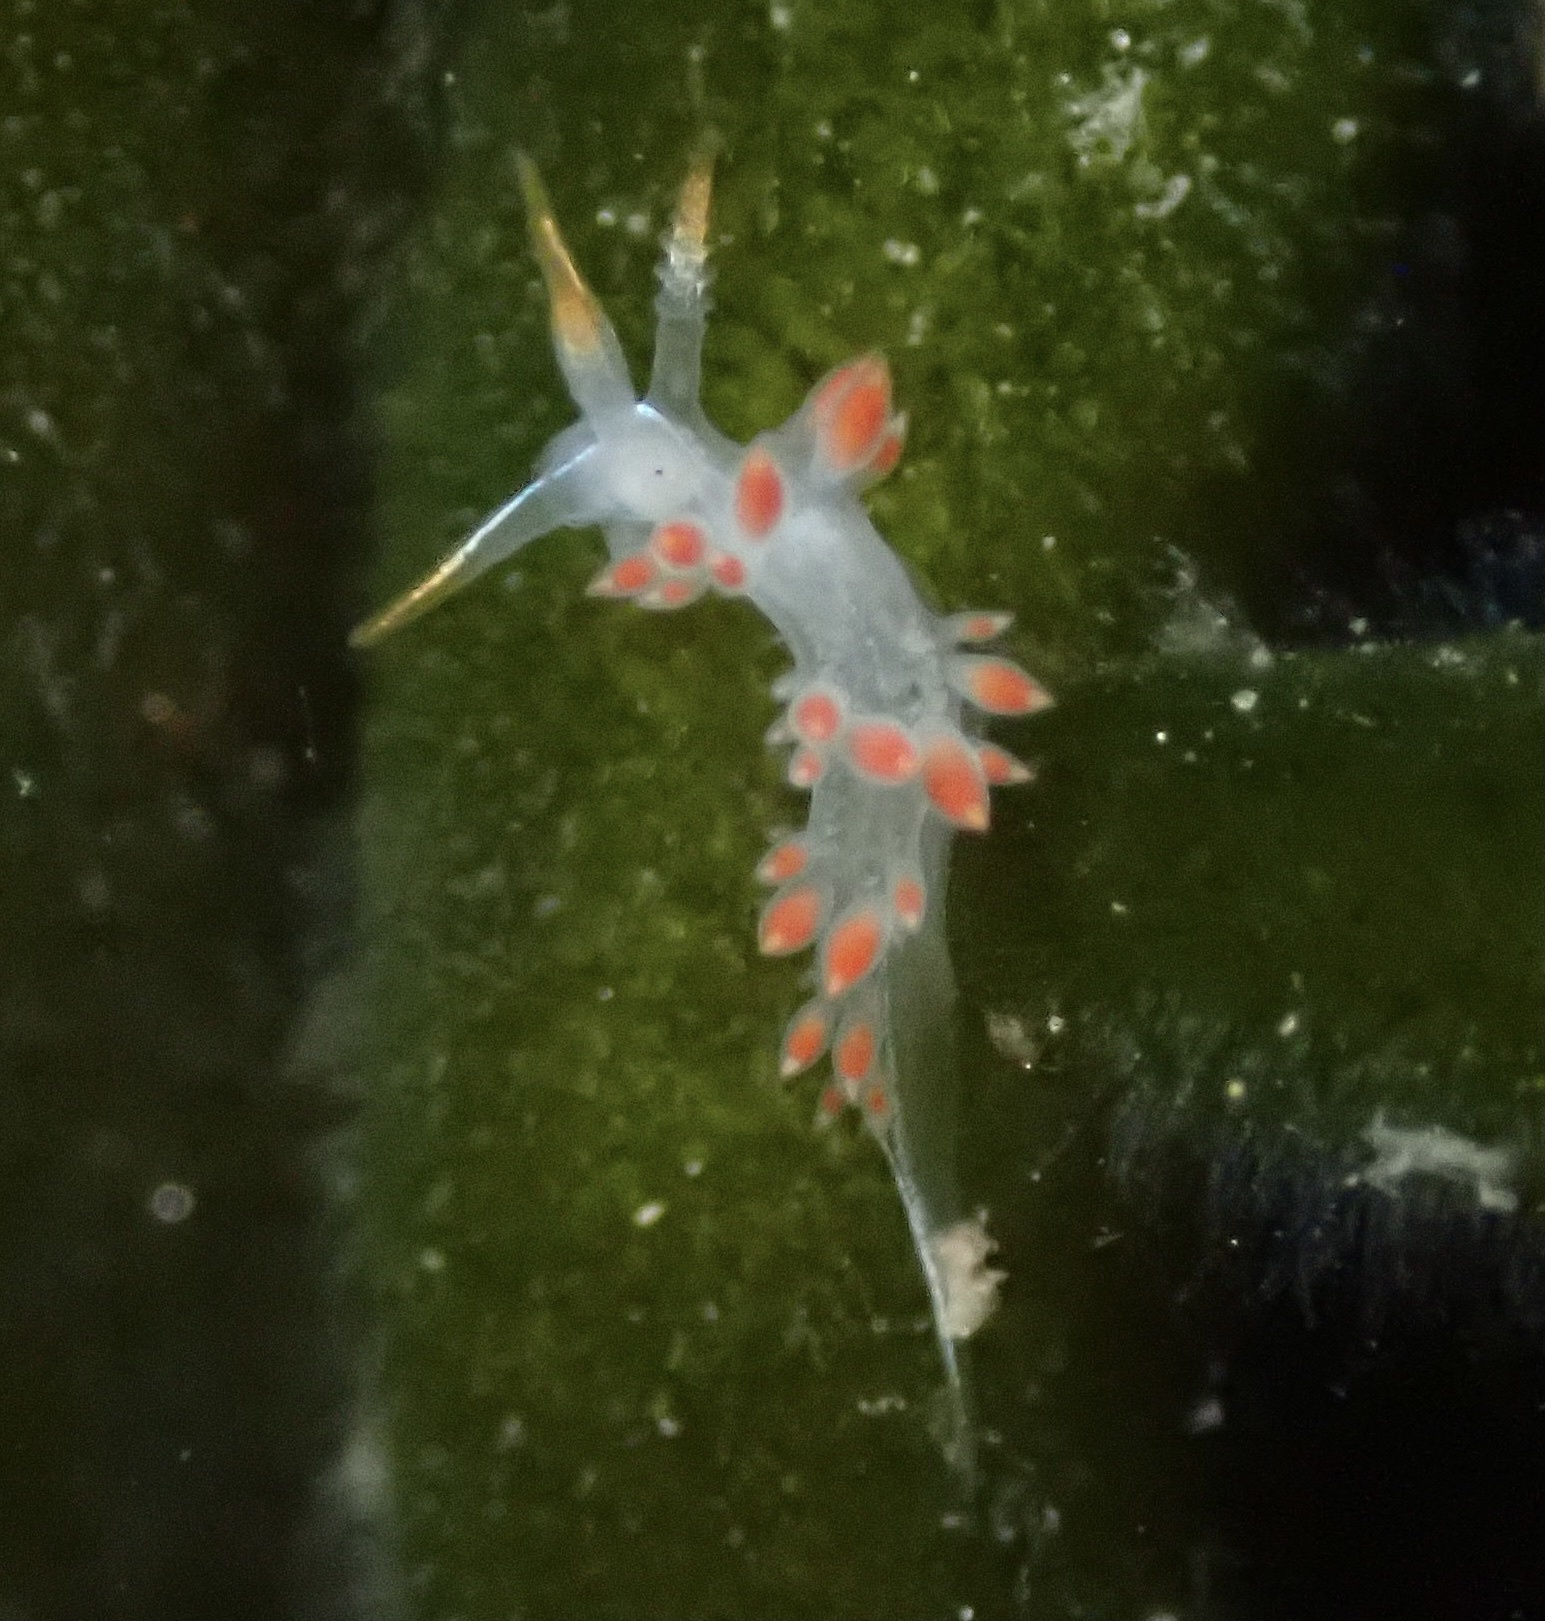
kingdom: Animalia
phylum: Mollusca
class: Gastropoda
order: Nudibranchia
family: Coryphellidae
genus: Coryphella
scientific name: Coryphella trilineata
